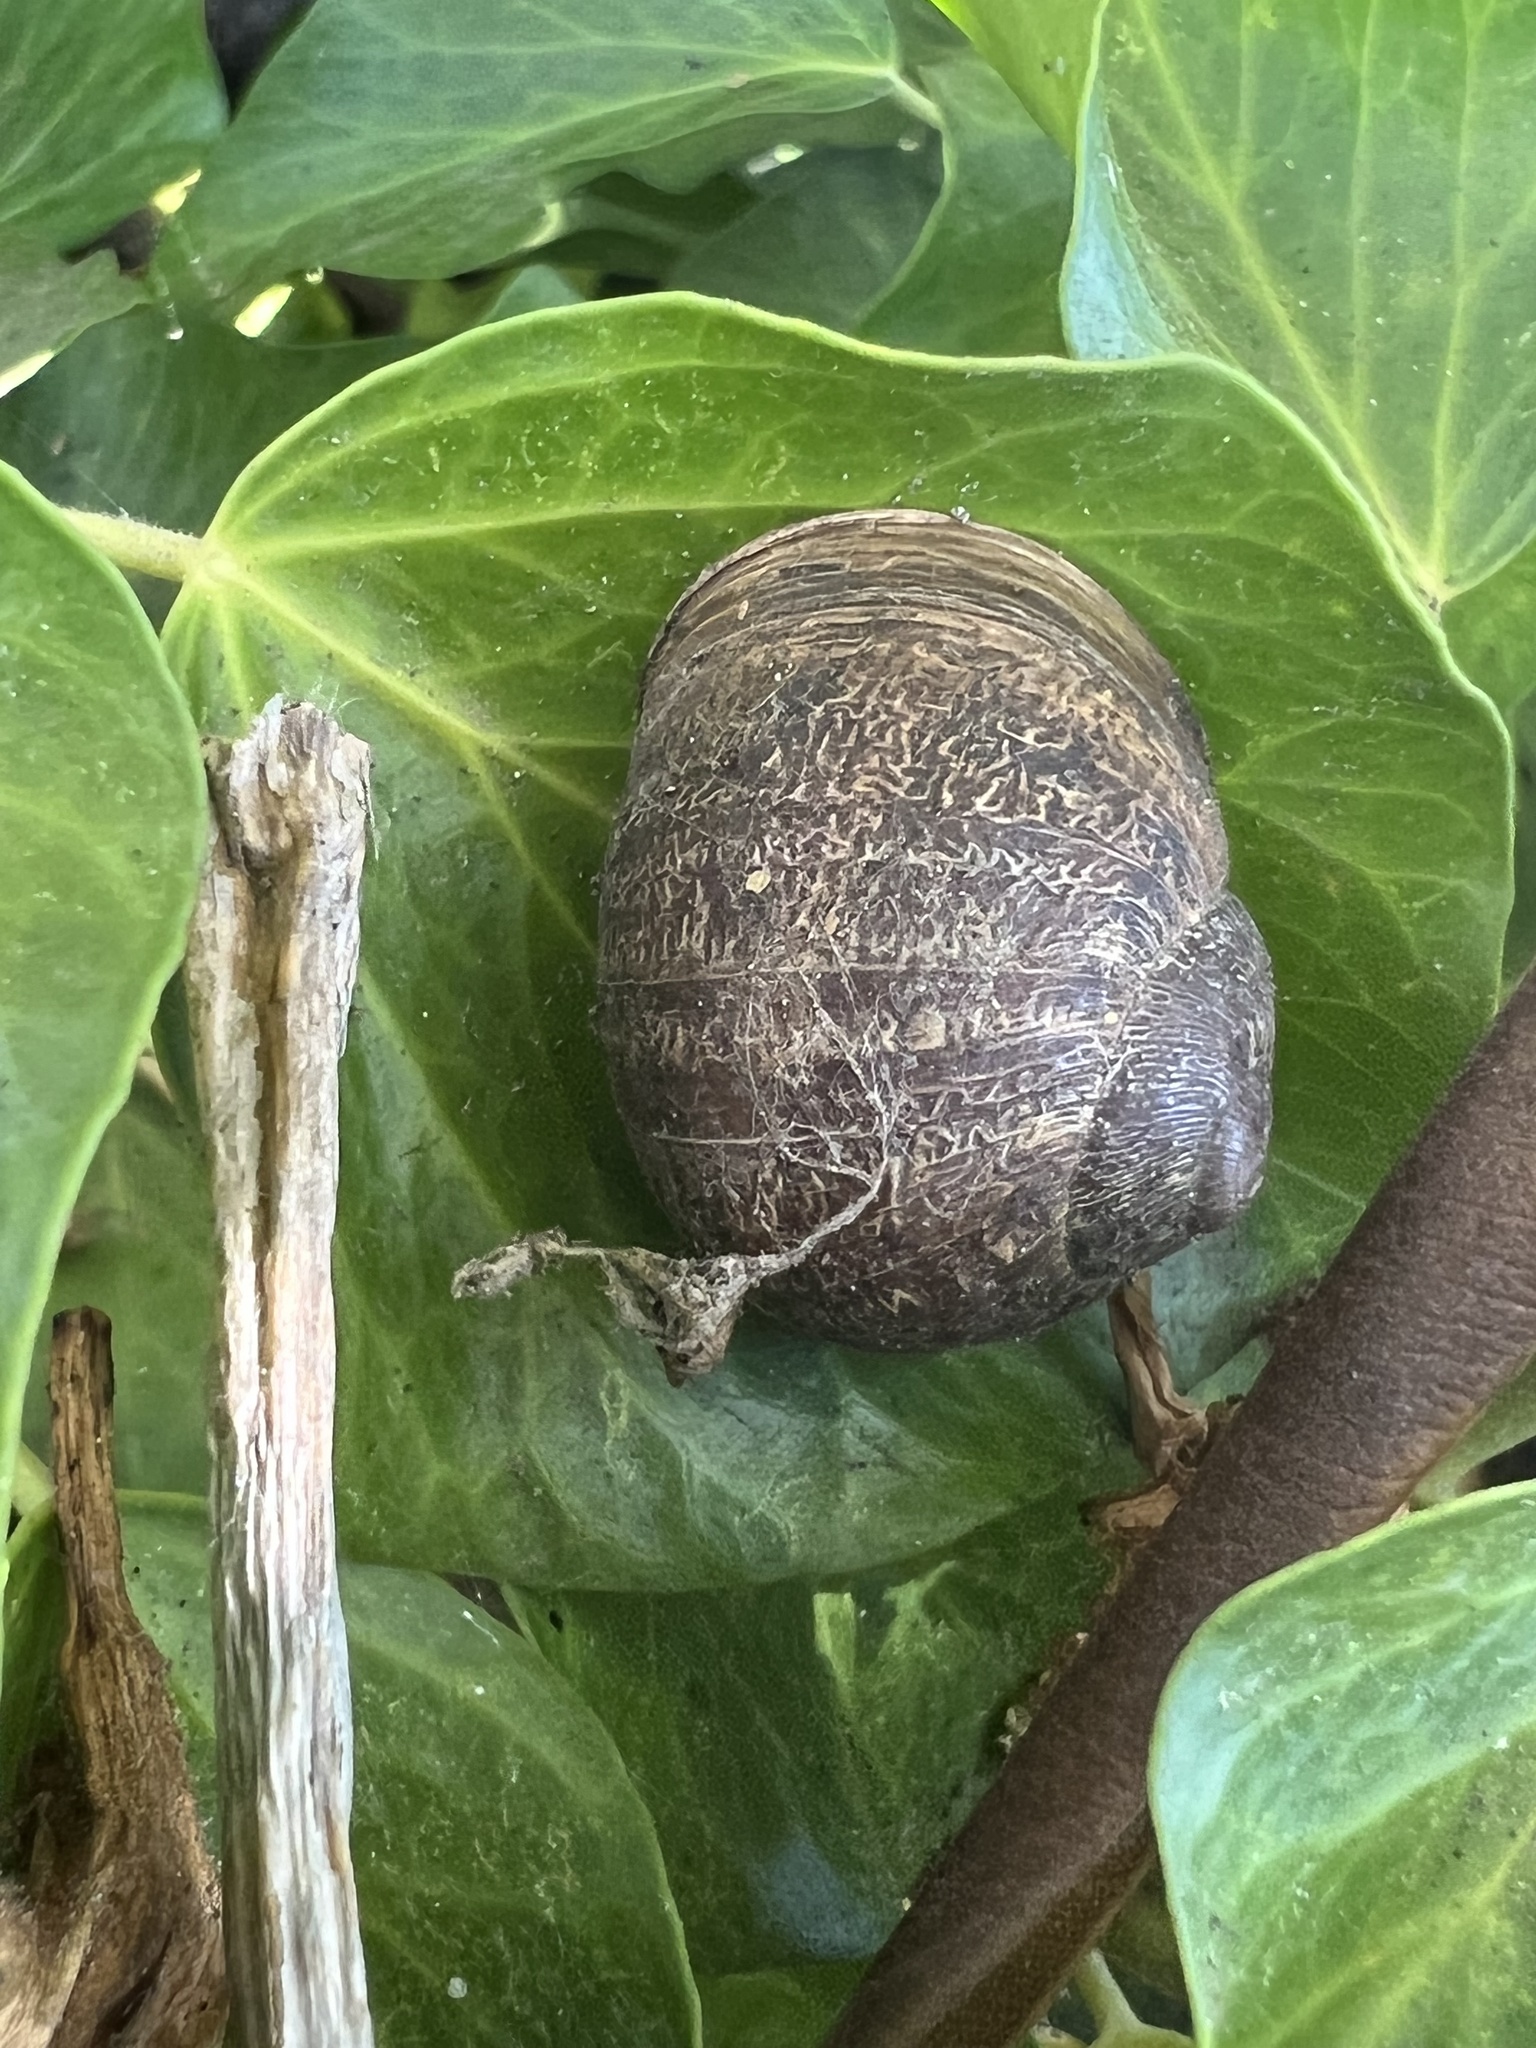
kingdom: Animalia
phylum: Mollusca
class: Gastropoda
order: Stylommatophora
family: Helicidae
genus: Cornu
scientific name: Cornu aspersum
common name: Brown garden snail
